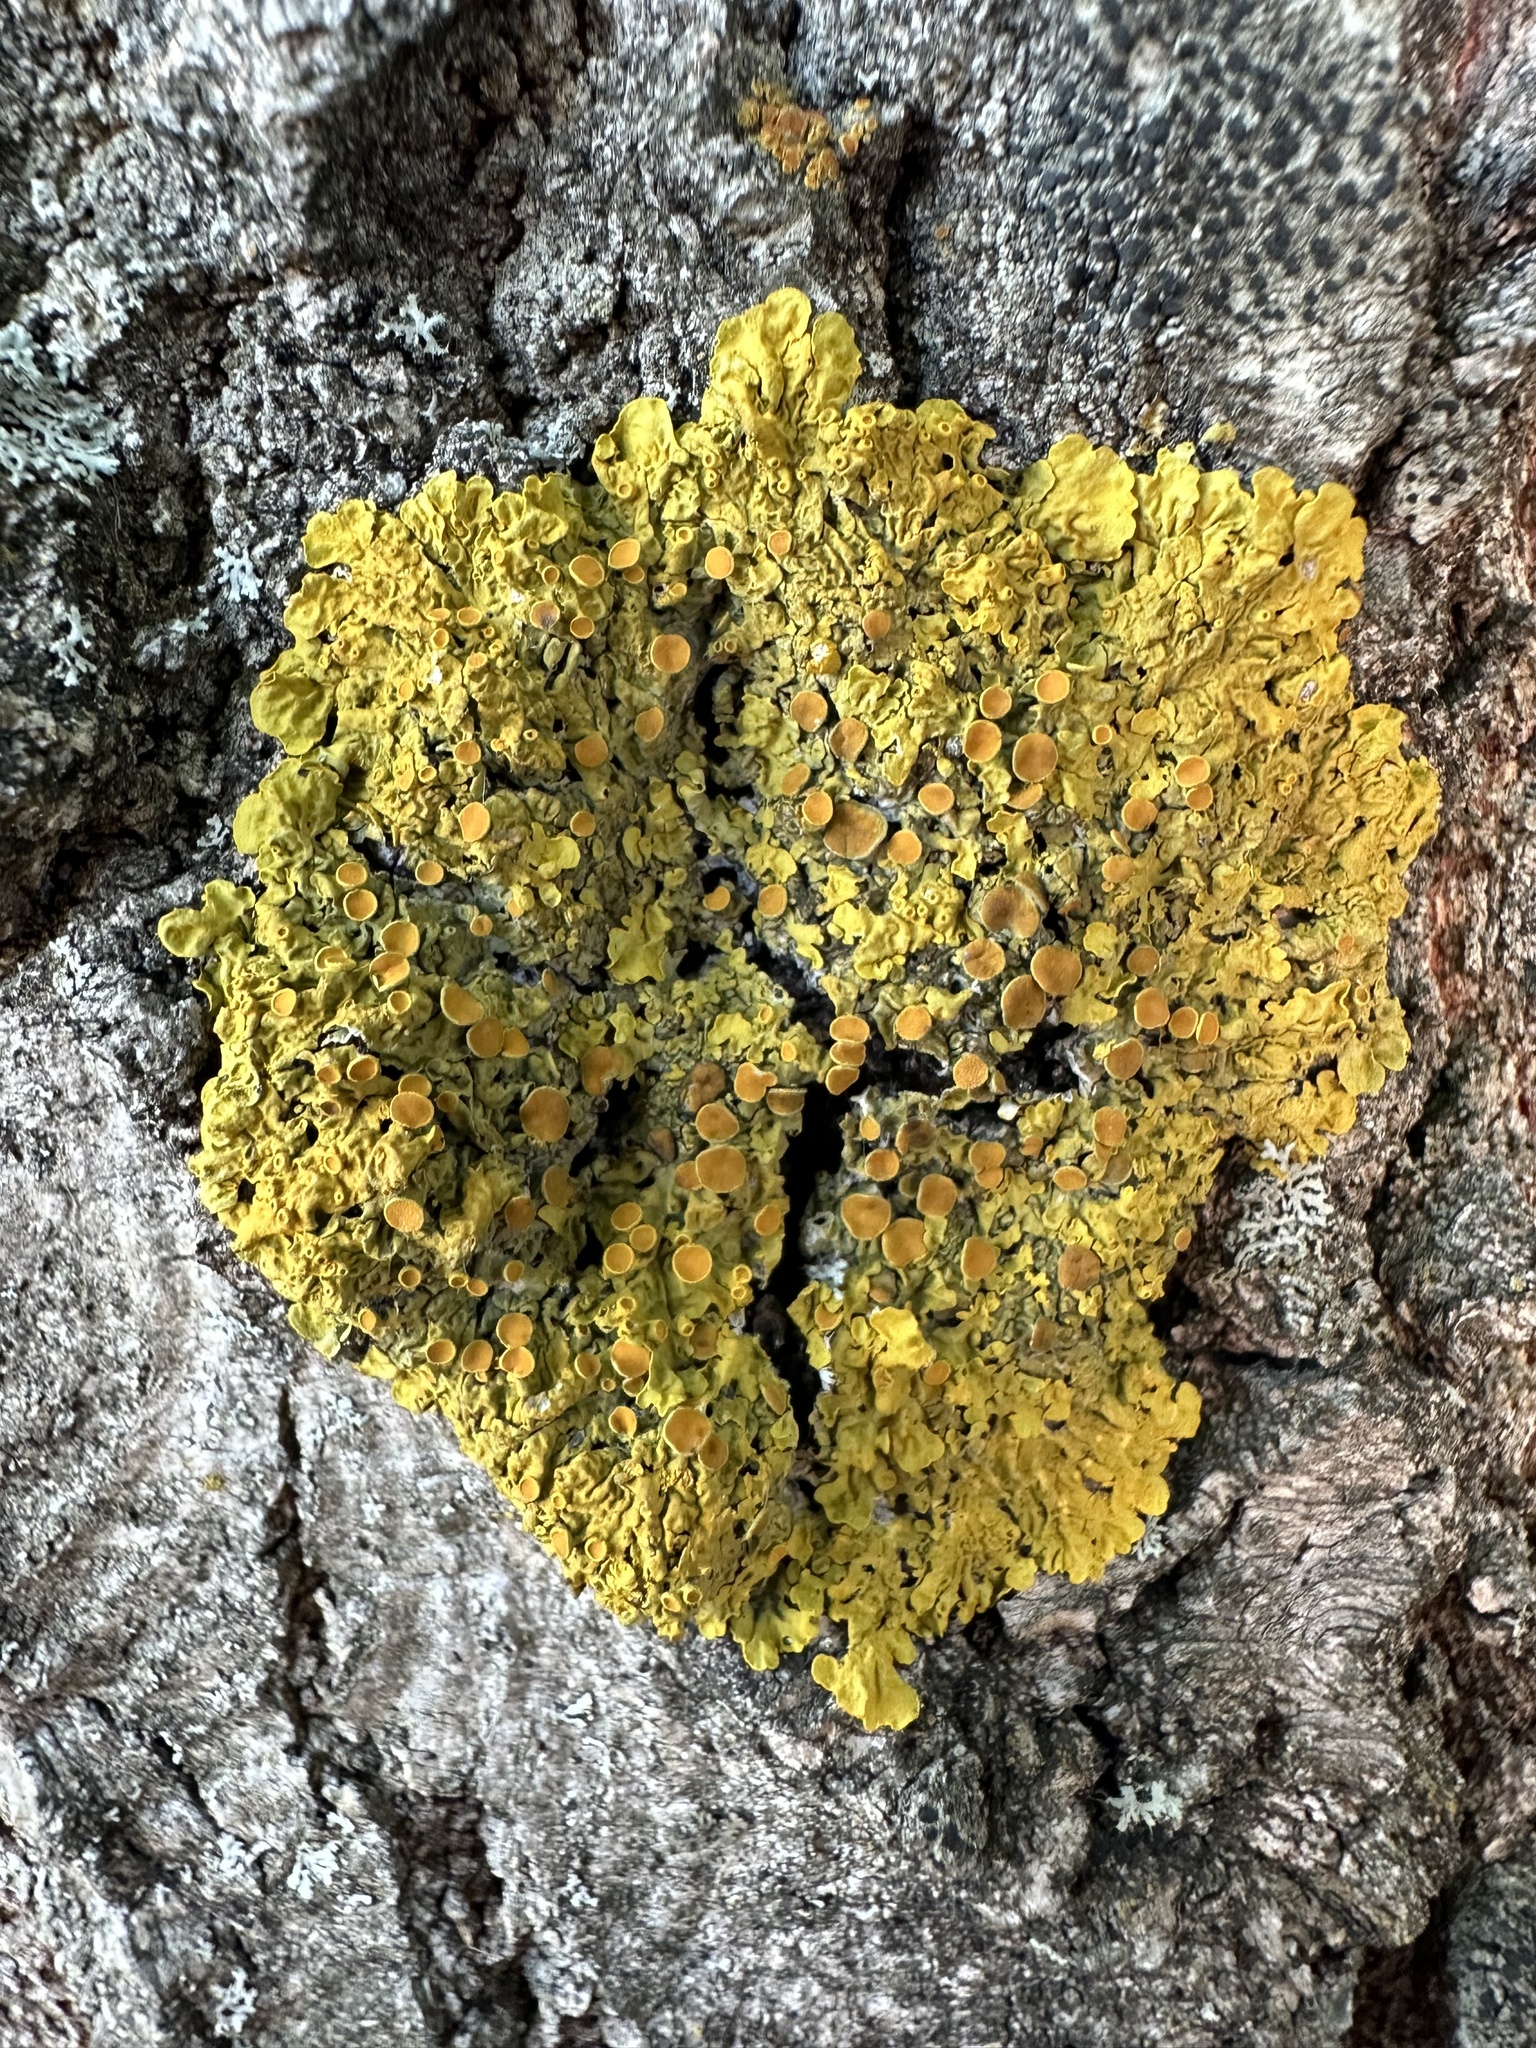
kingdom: Fungi
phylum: Ascomycota
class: Lecanoromycetes
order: Teloschistales
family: Teloschistaceae
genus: Xanthoria
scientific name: Xanthoria parietina
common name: Common orange lichen
